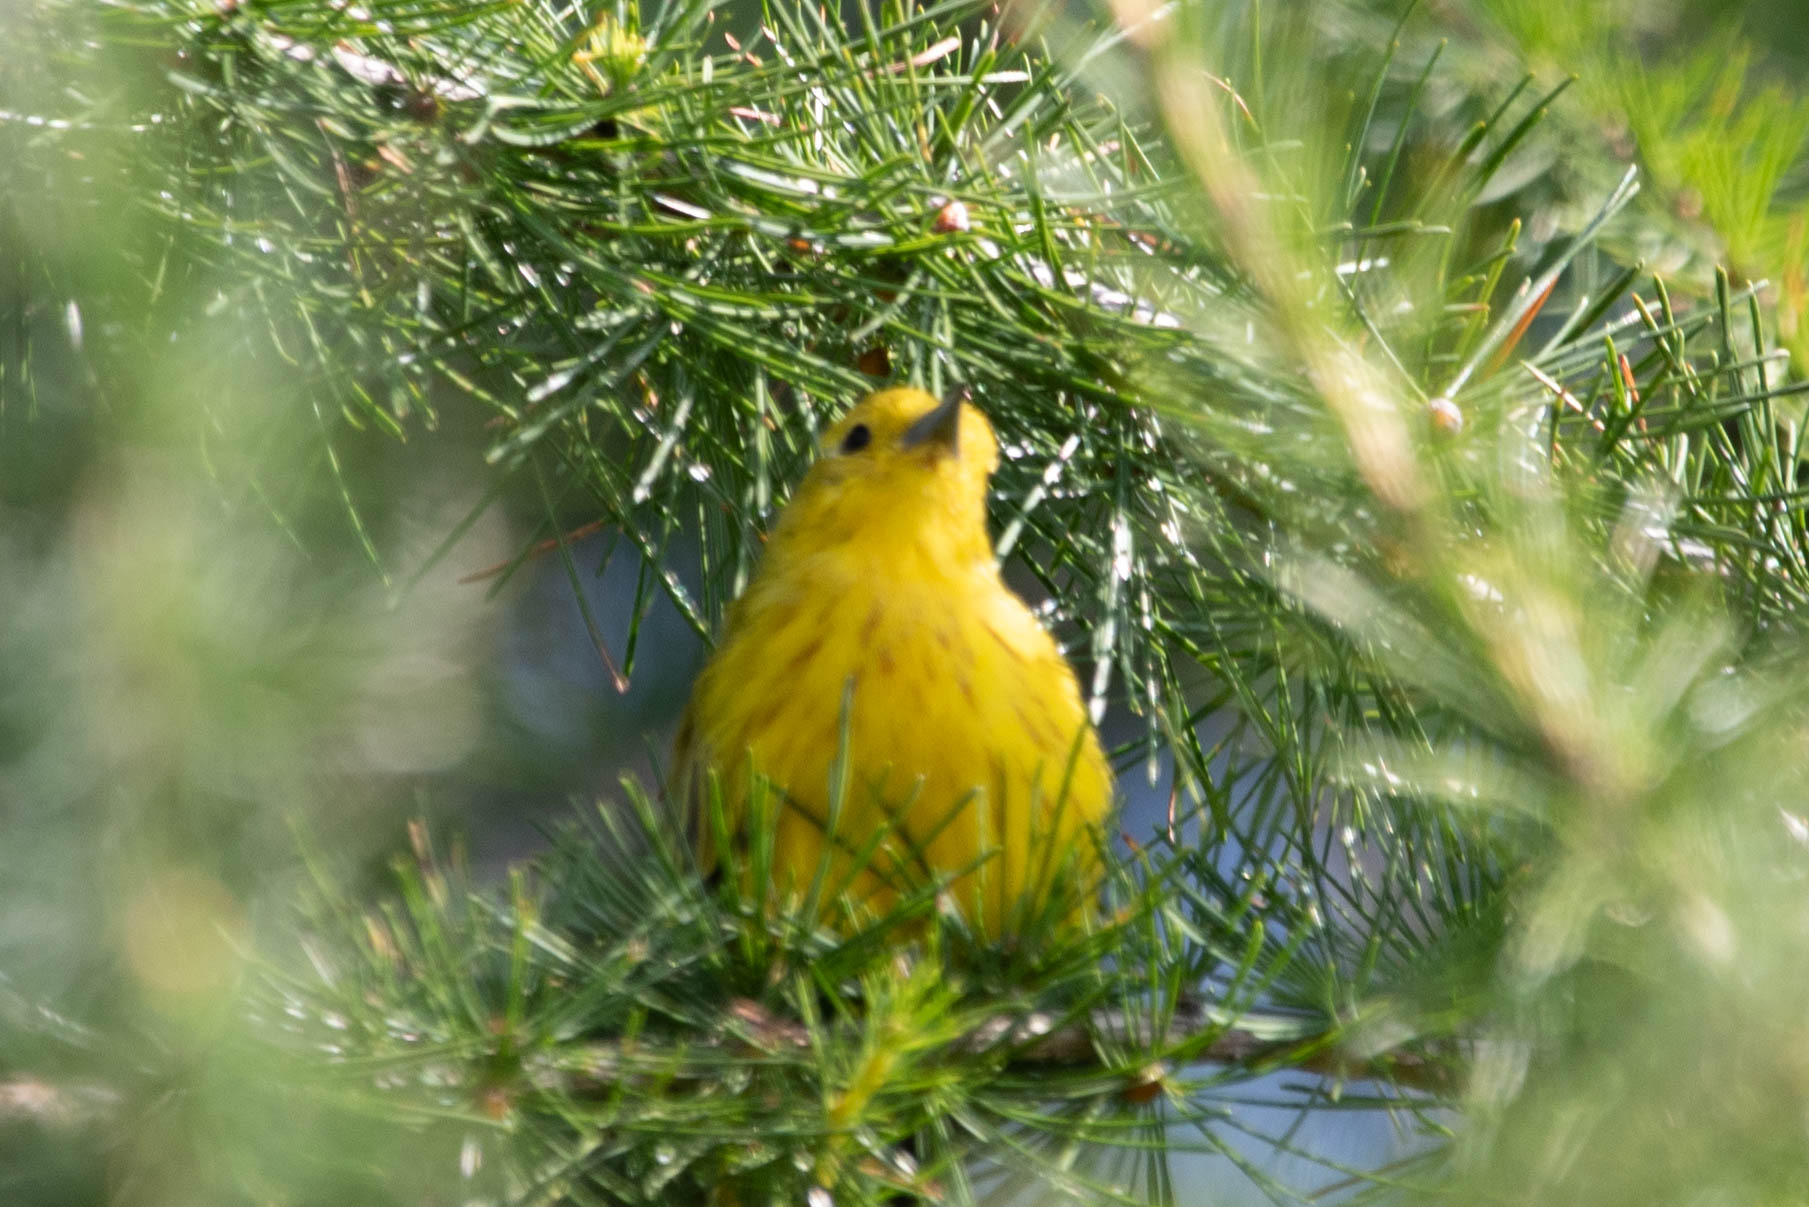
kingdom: Animalia
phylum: Chordata
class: Aves
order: Passeriformes
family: Parulidae
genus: Setophaga
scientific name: Setophaga petechia
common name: Yellow warbler
